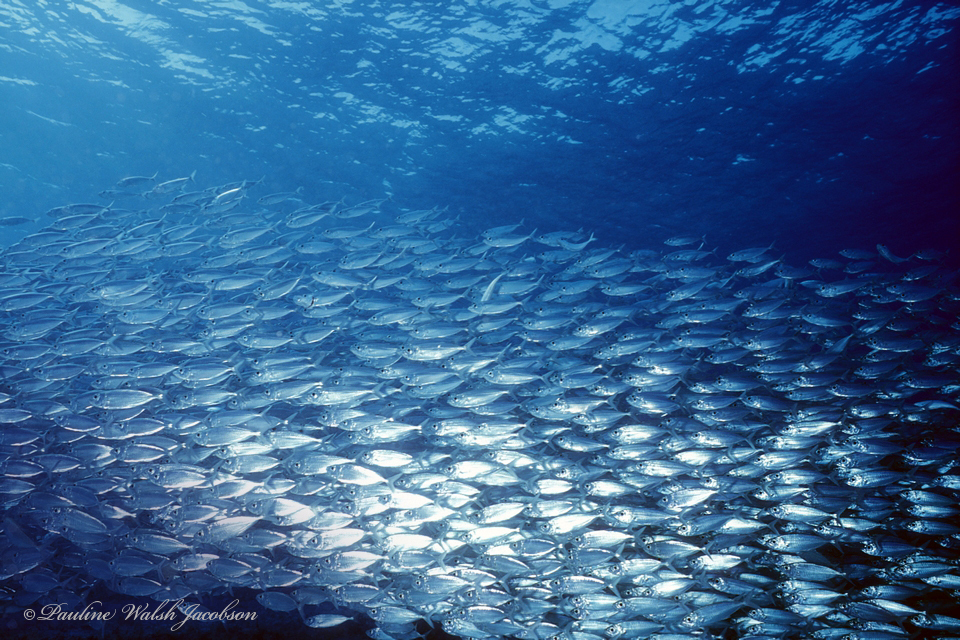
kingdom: Animalia
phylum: Chordata
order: Perciformes
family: Carangidae
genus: Selar
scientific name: Selar crumenophthalmus
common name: Bigeye scad
